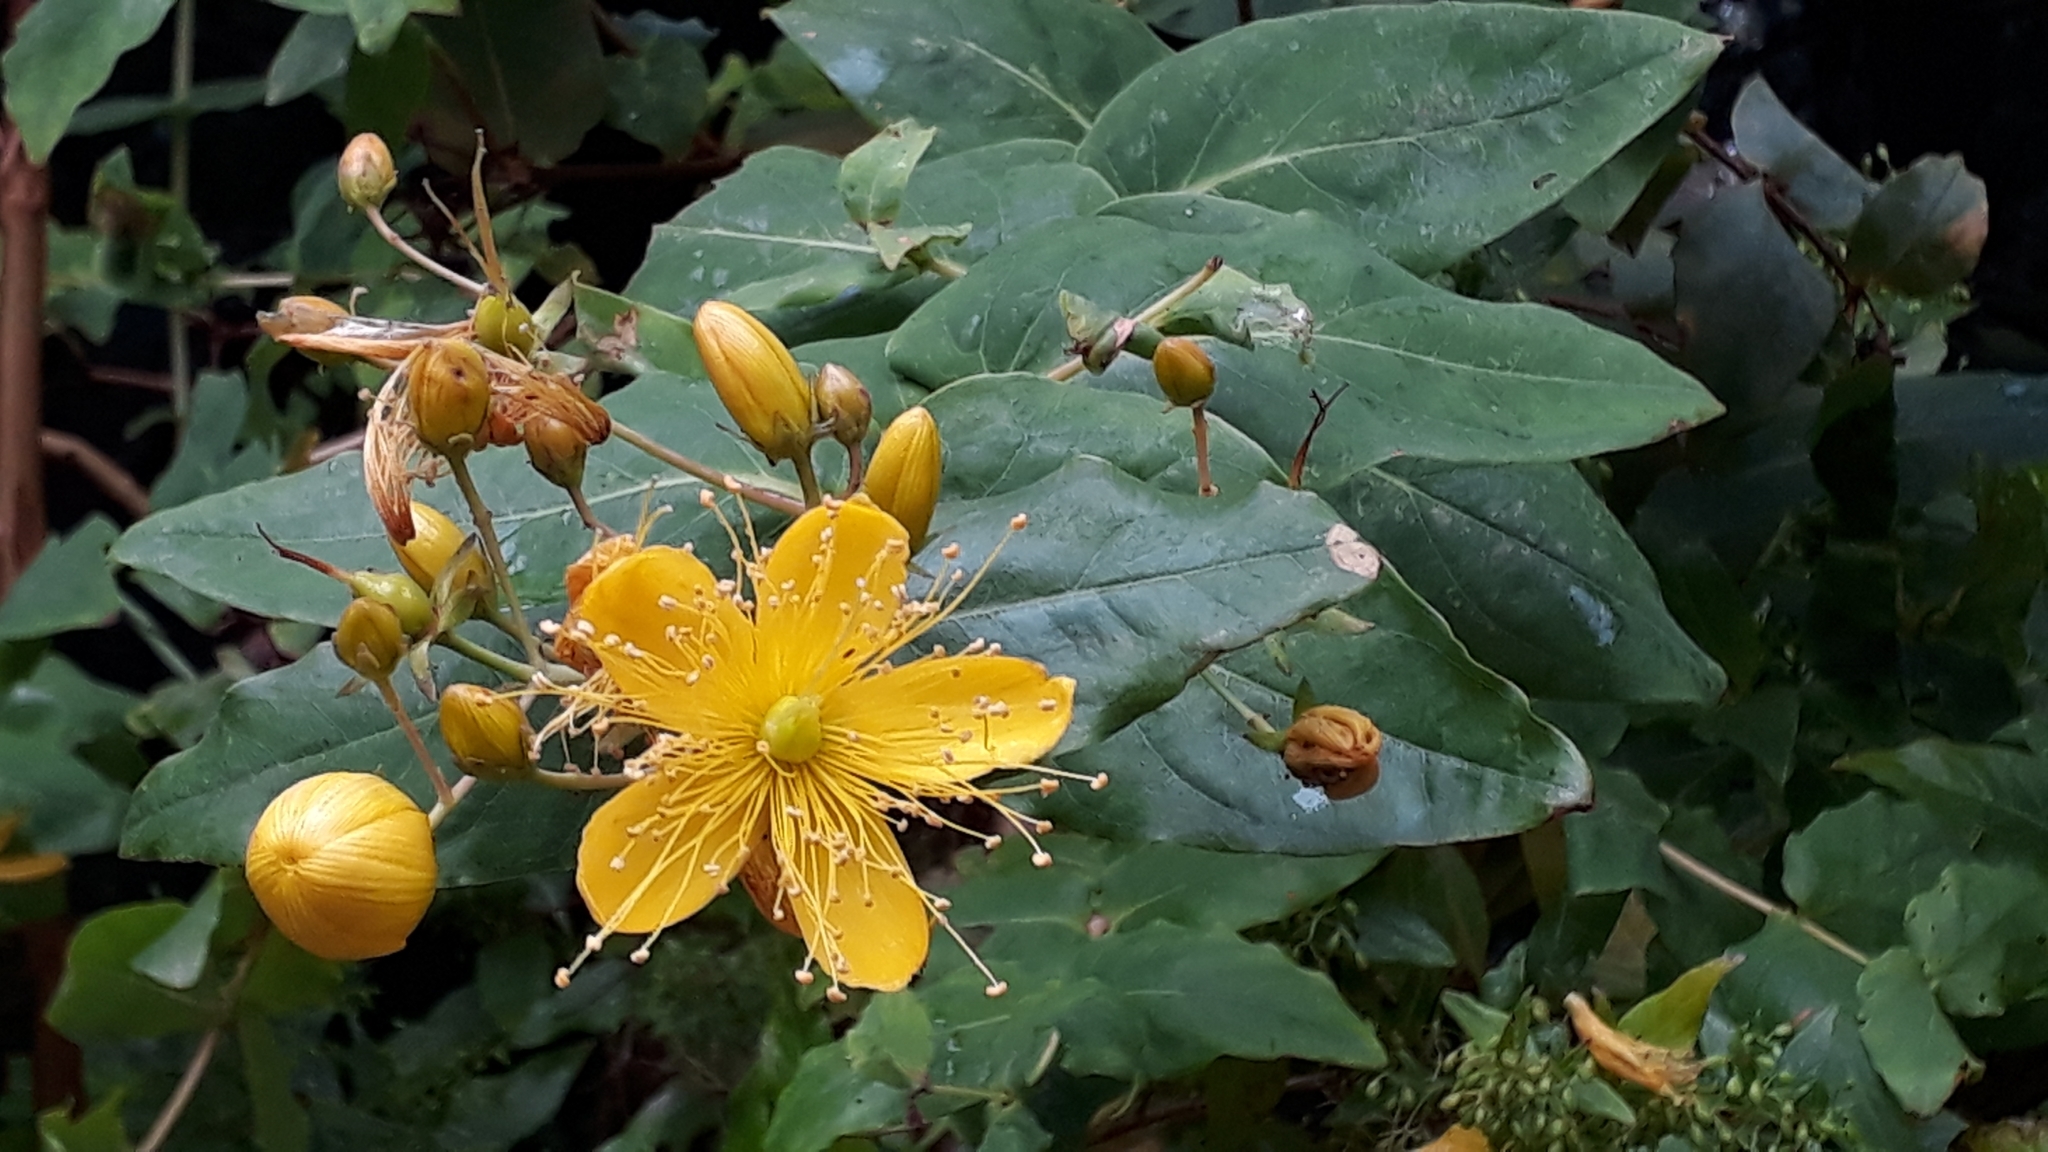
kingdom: Plantae
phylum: Tracheophyta
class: Magnoliopsida
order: Malpighiales
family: Hypericaceae
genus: Hypericum
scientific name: Hypericum grandifolium
